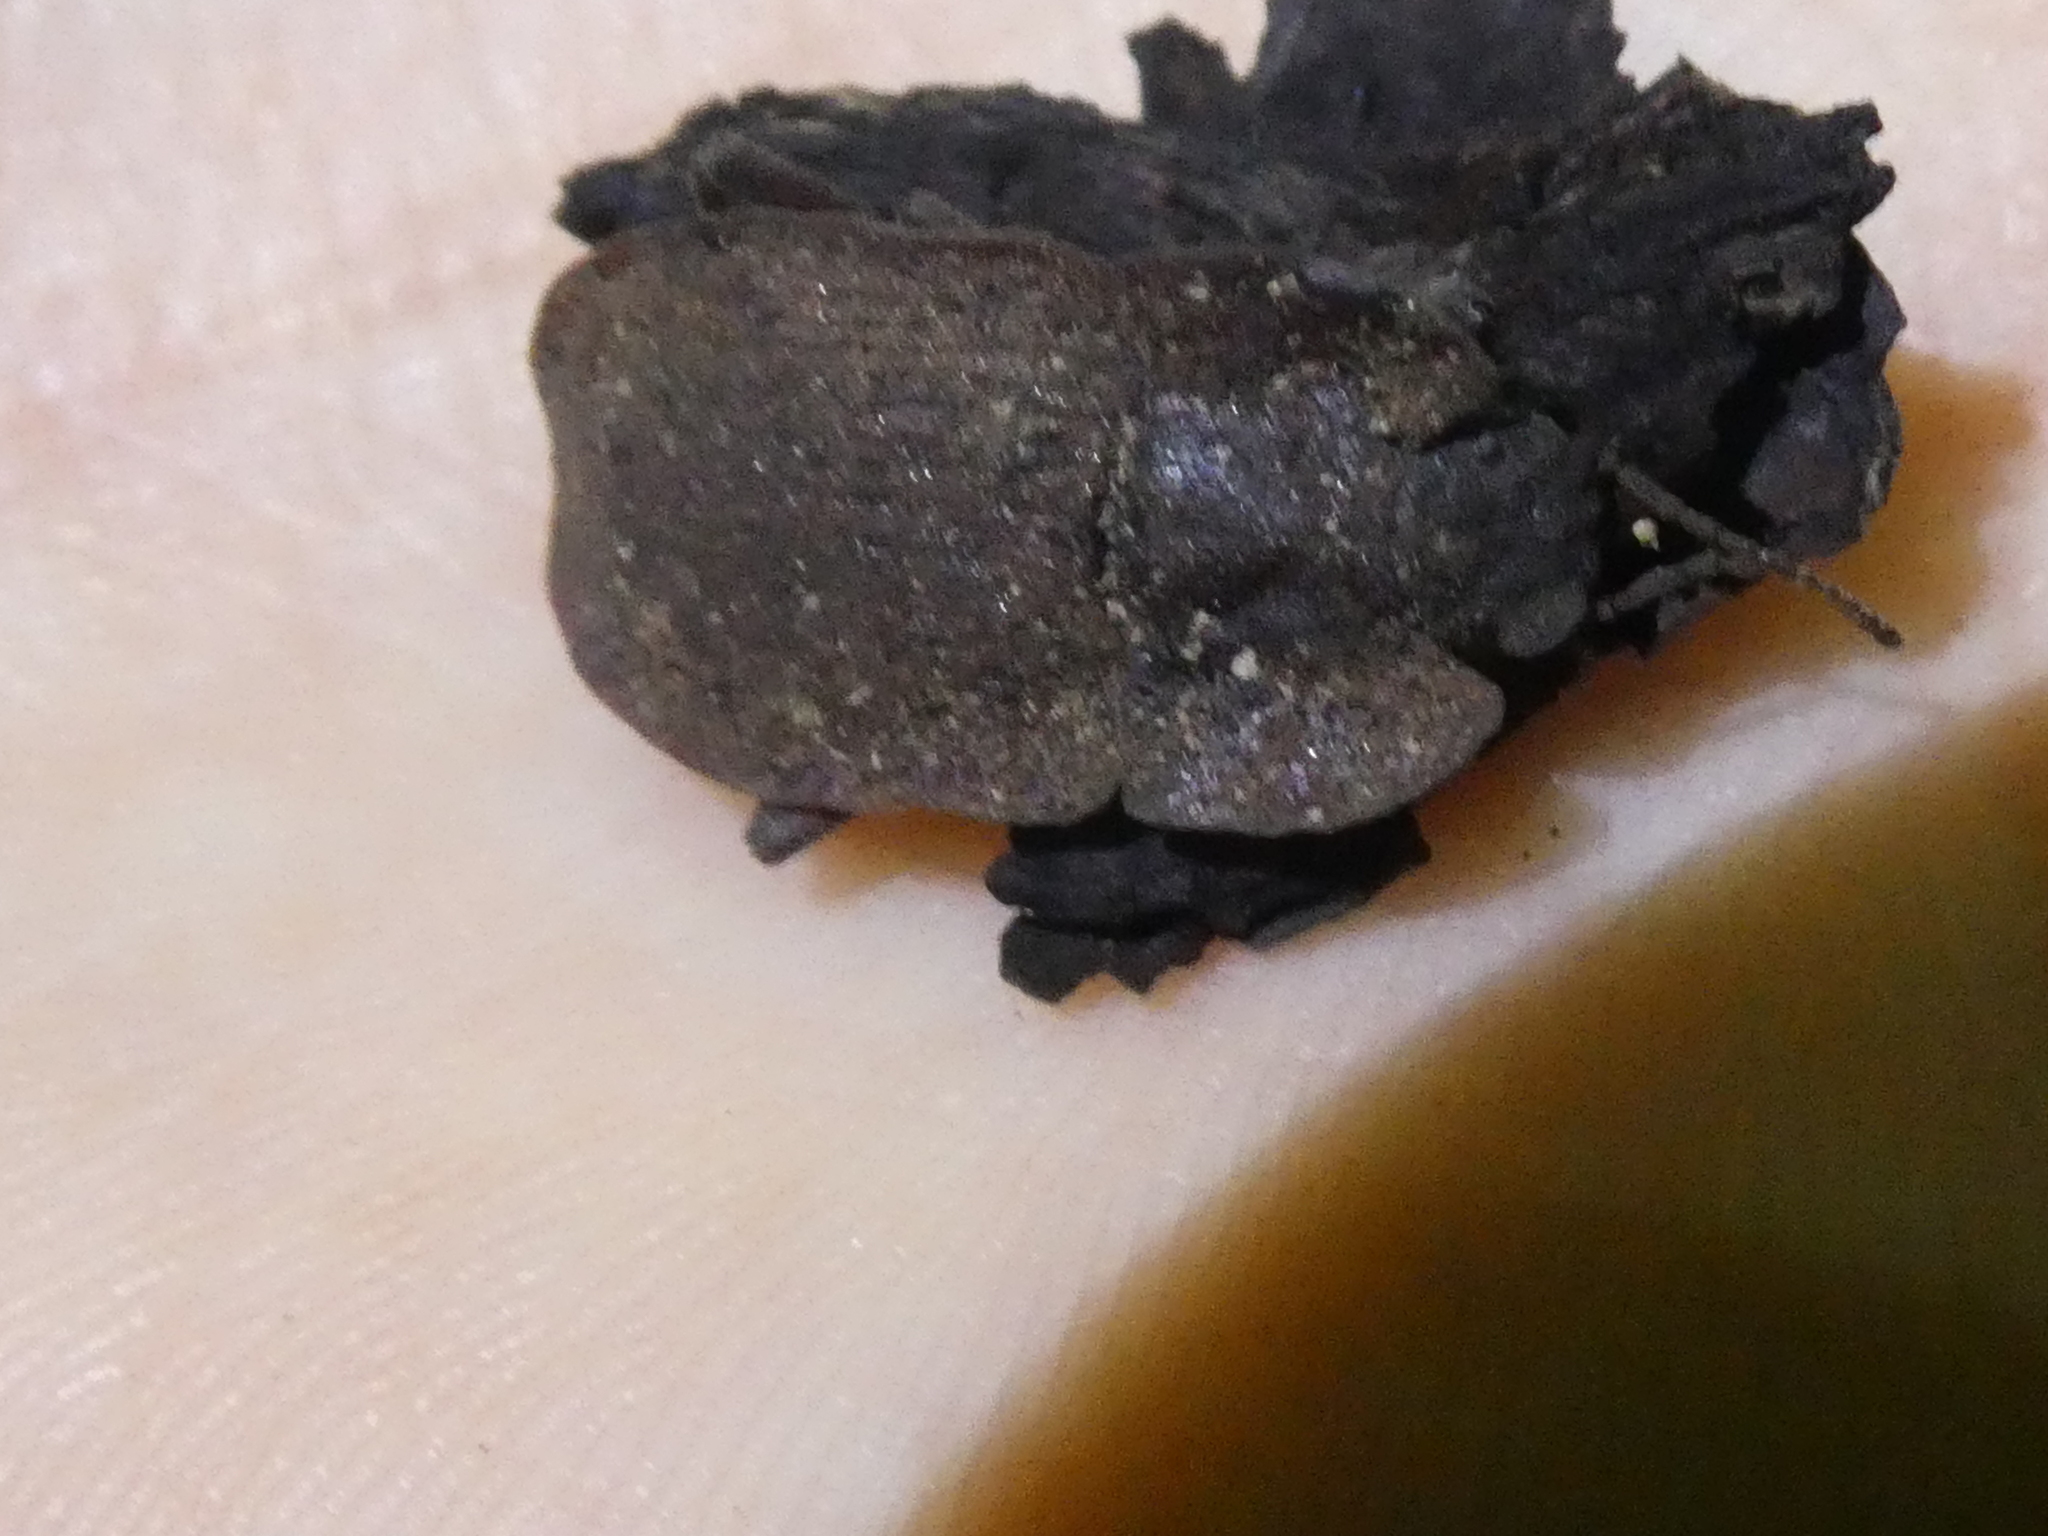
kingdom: Animalia
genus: Mitua
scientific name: Mitua
